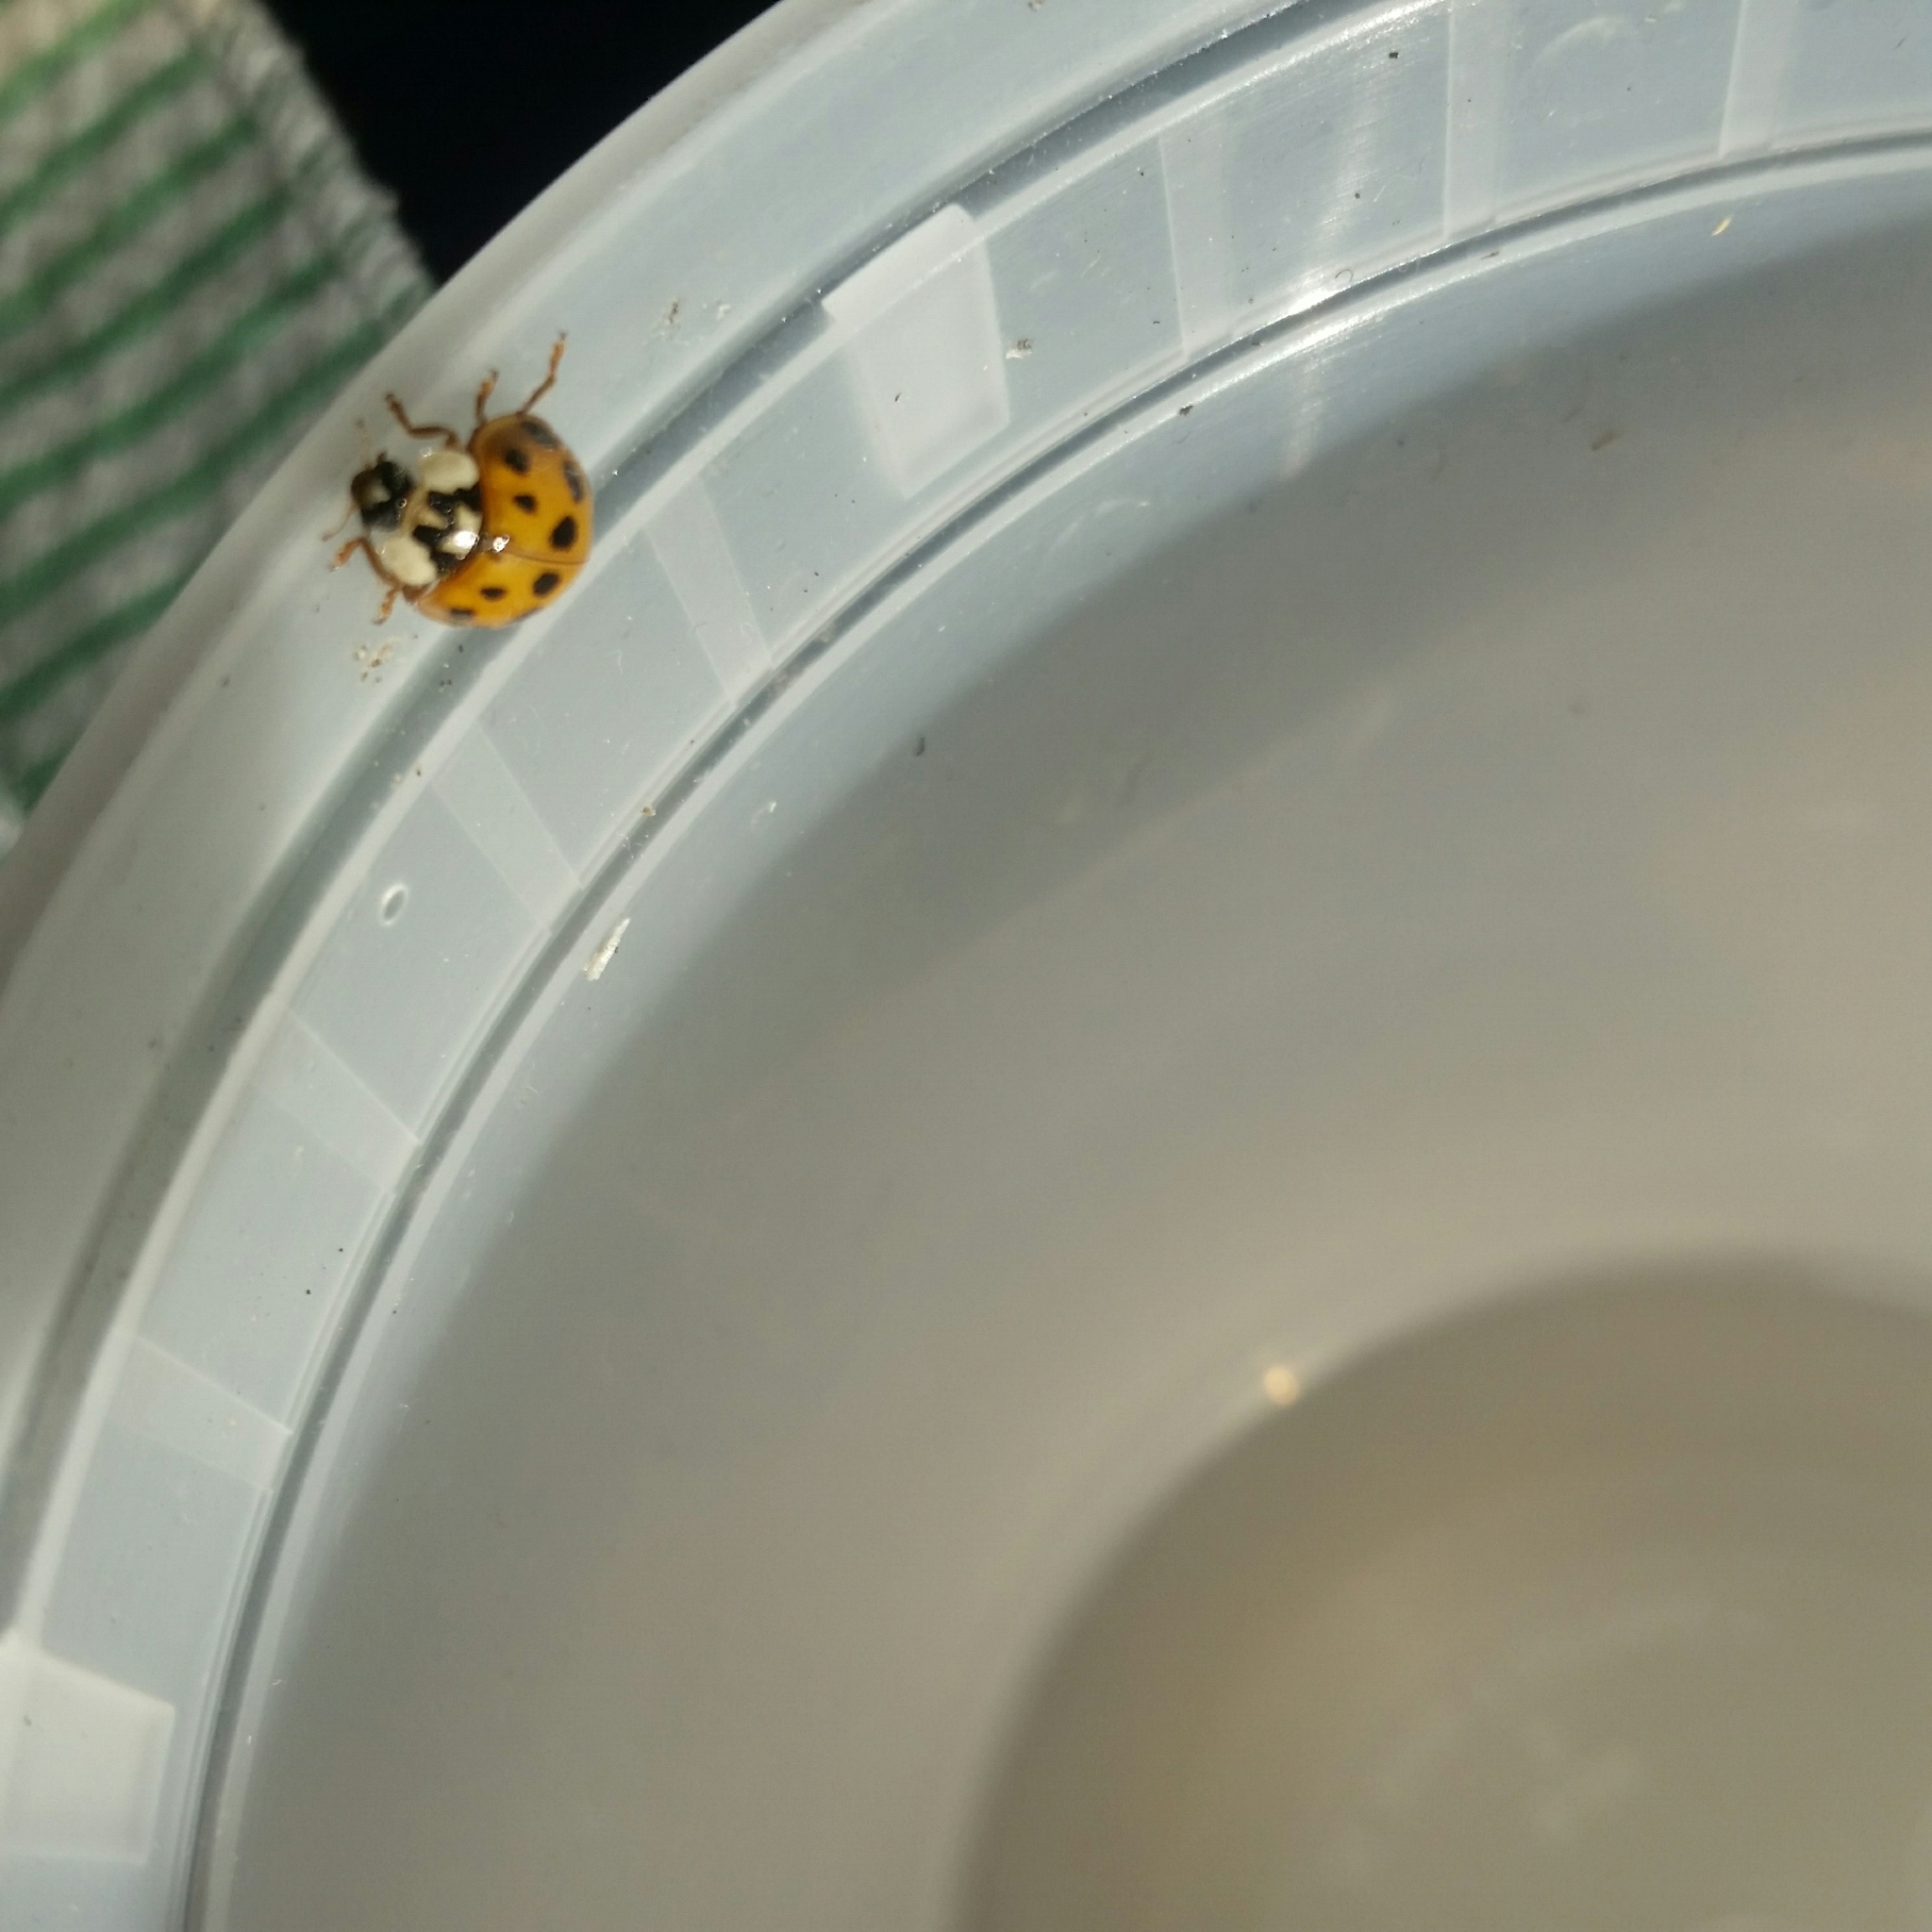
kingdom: Animalia
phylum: Arthropoda
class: Insecta
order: Coleoptera
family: Coccinellidae
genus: Harmonia
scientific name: Harmonia axyridis
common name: Harlequin ladybird
